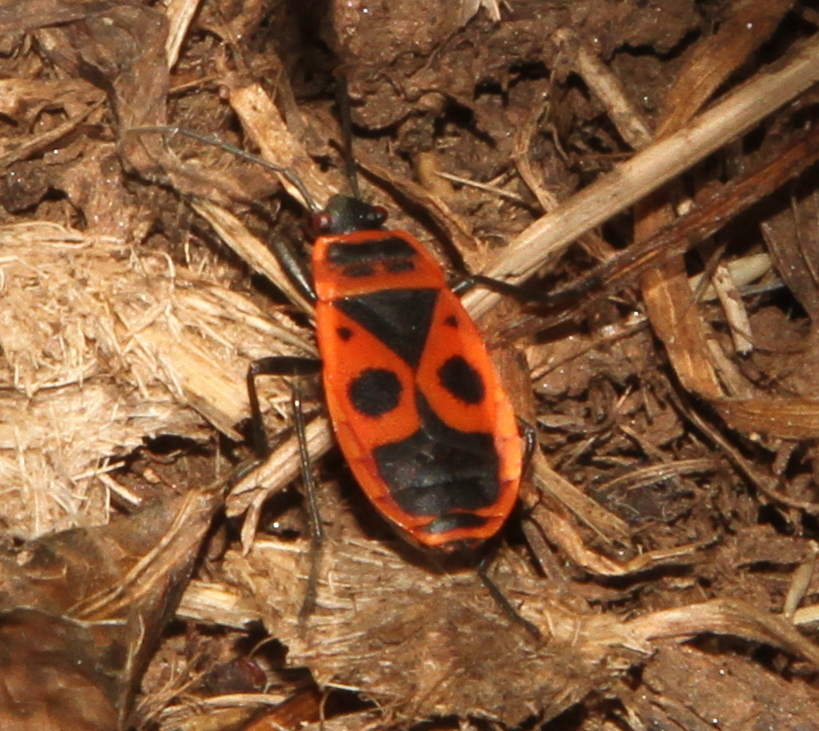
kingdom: Animalia
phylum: Arthropoda
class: Insecta
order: Hemiptera
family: Pyrrhocoridae
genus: Pyrrhocoris
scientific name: Pyrrhocoris apterus
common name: Firebug
